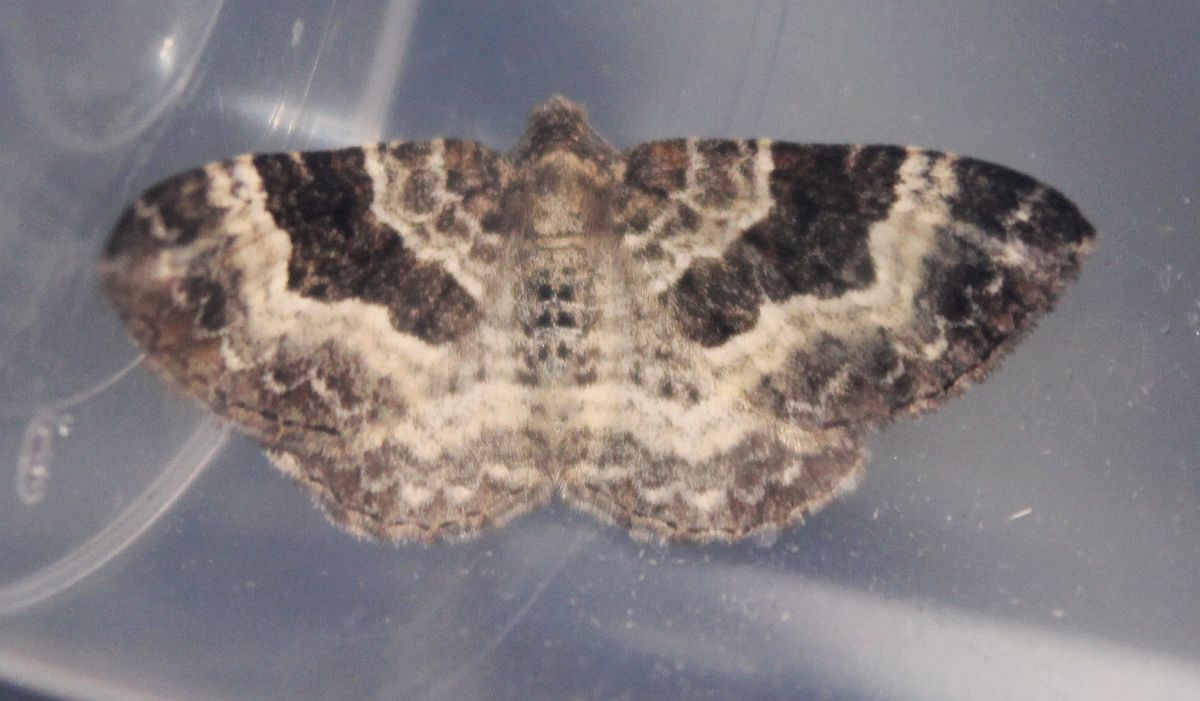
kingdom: Animalia
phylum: Arthropoda
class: Insecta
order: Lepidoptera
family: Geometridae
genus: Epirrhoe
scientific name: Epirrhoe alternata
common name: Common carpet
